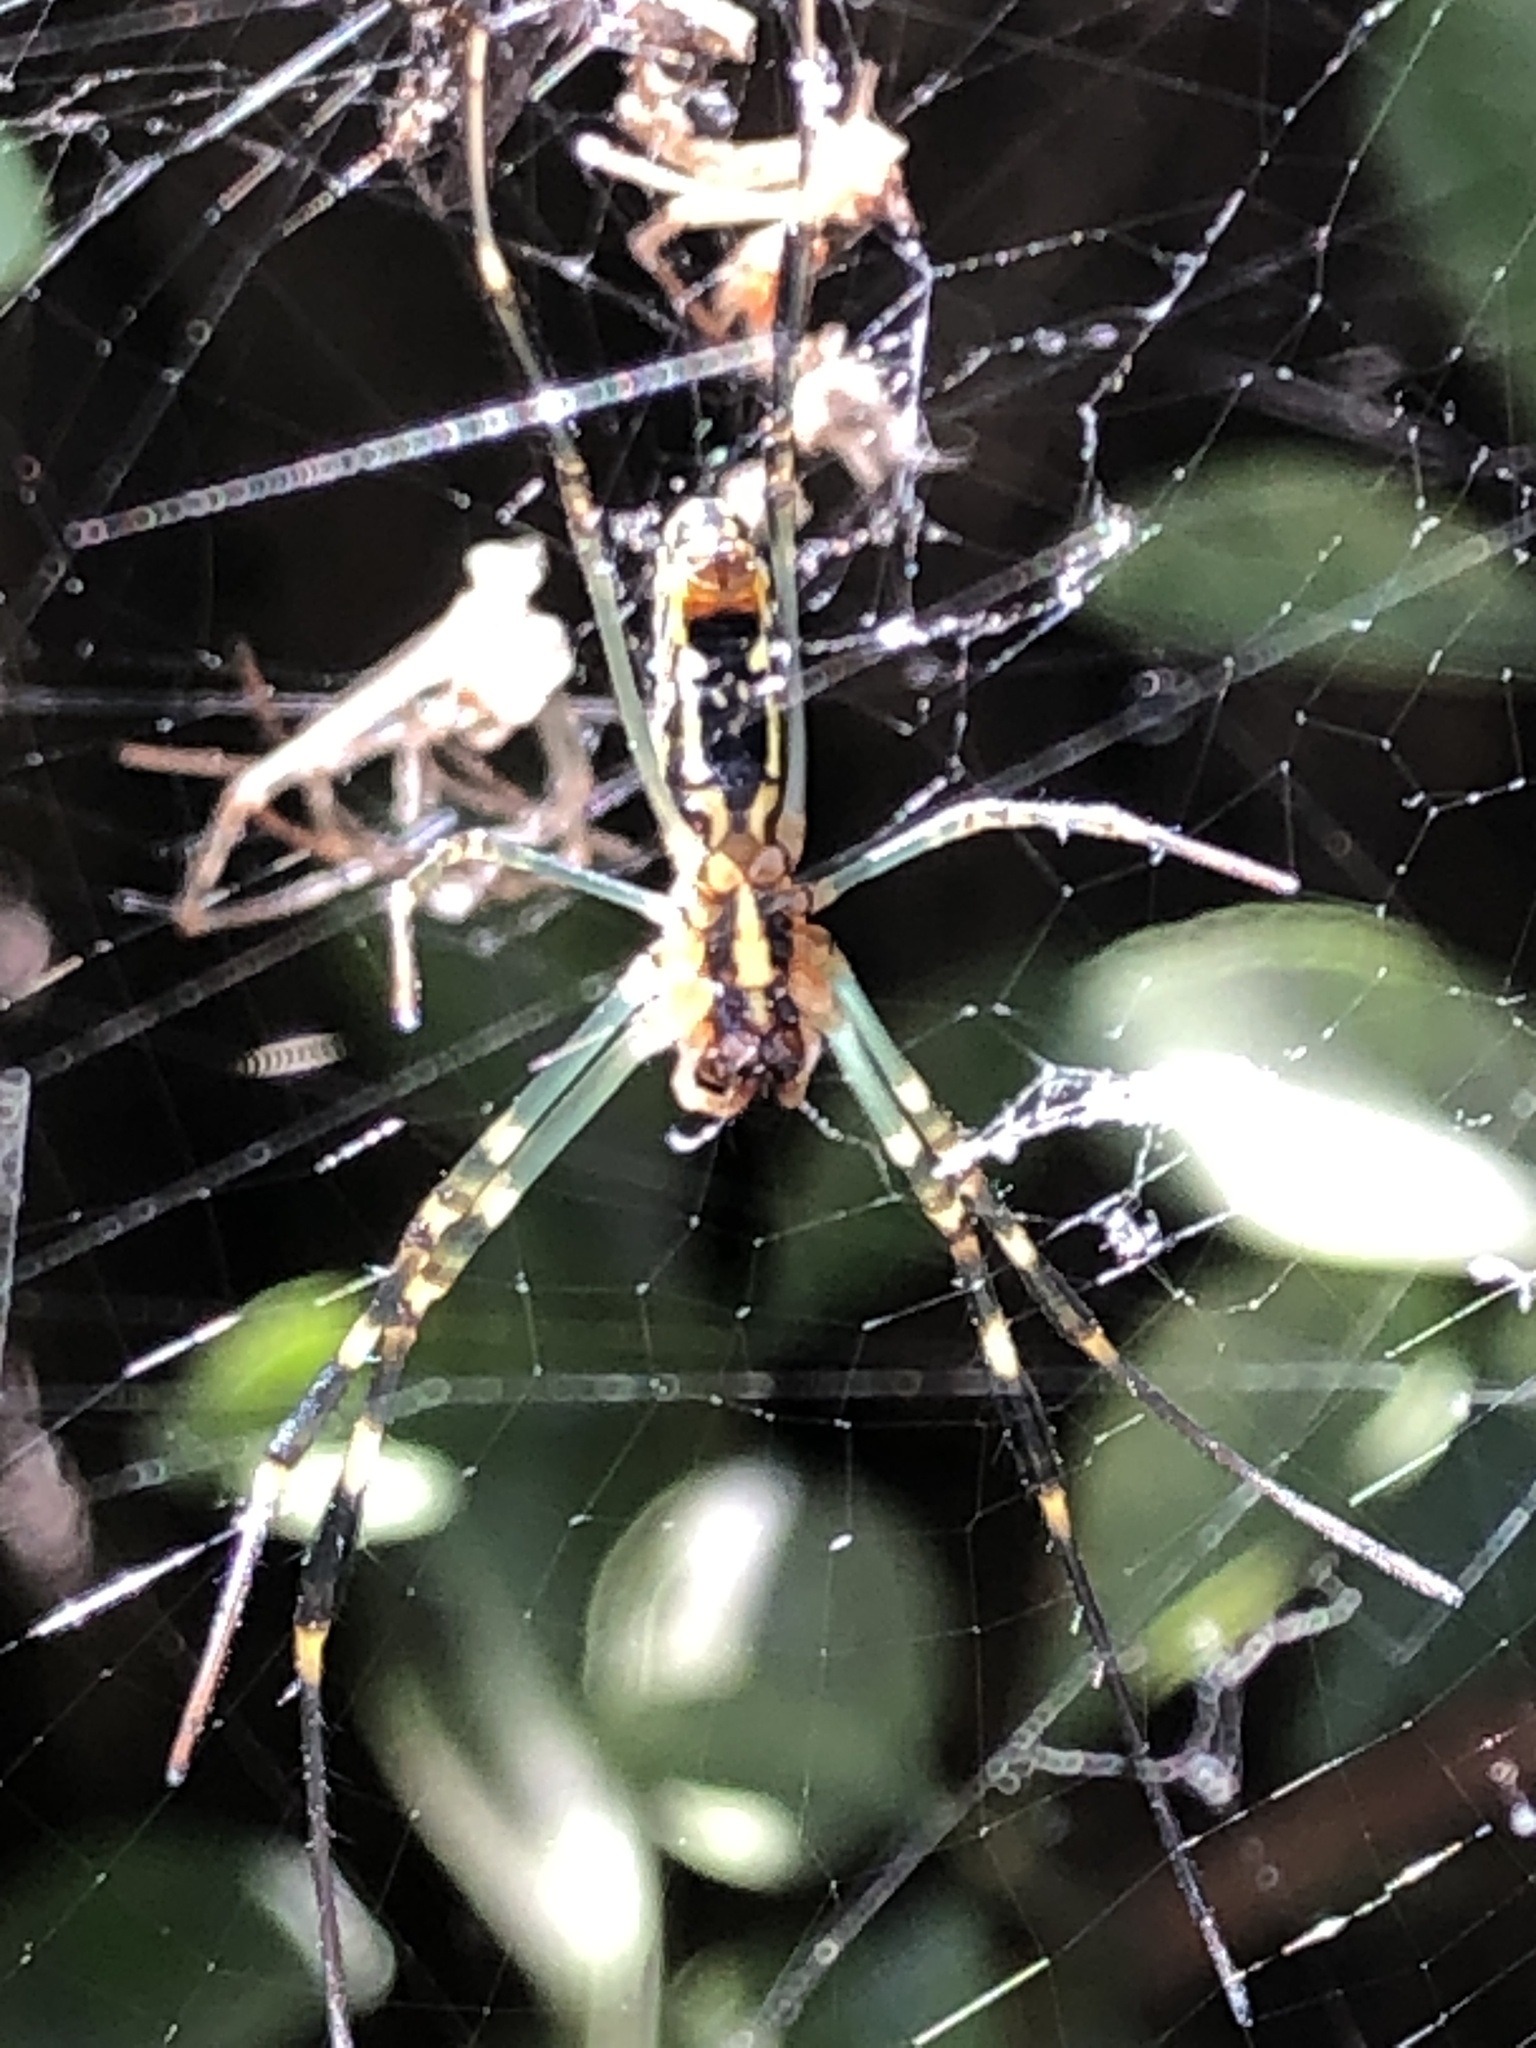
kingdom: Animalia
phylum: Arthropoda
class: Arachnida
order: Araneae
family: Araneidae
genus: Trichonephila
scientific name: Trichonephila clavata
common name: Jorō spider
